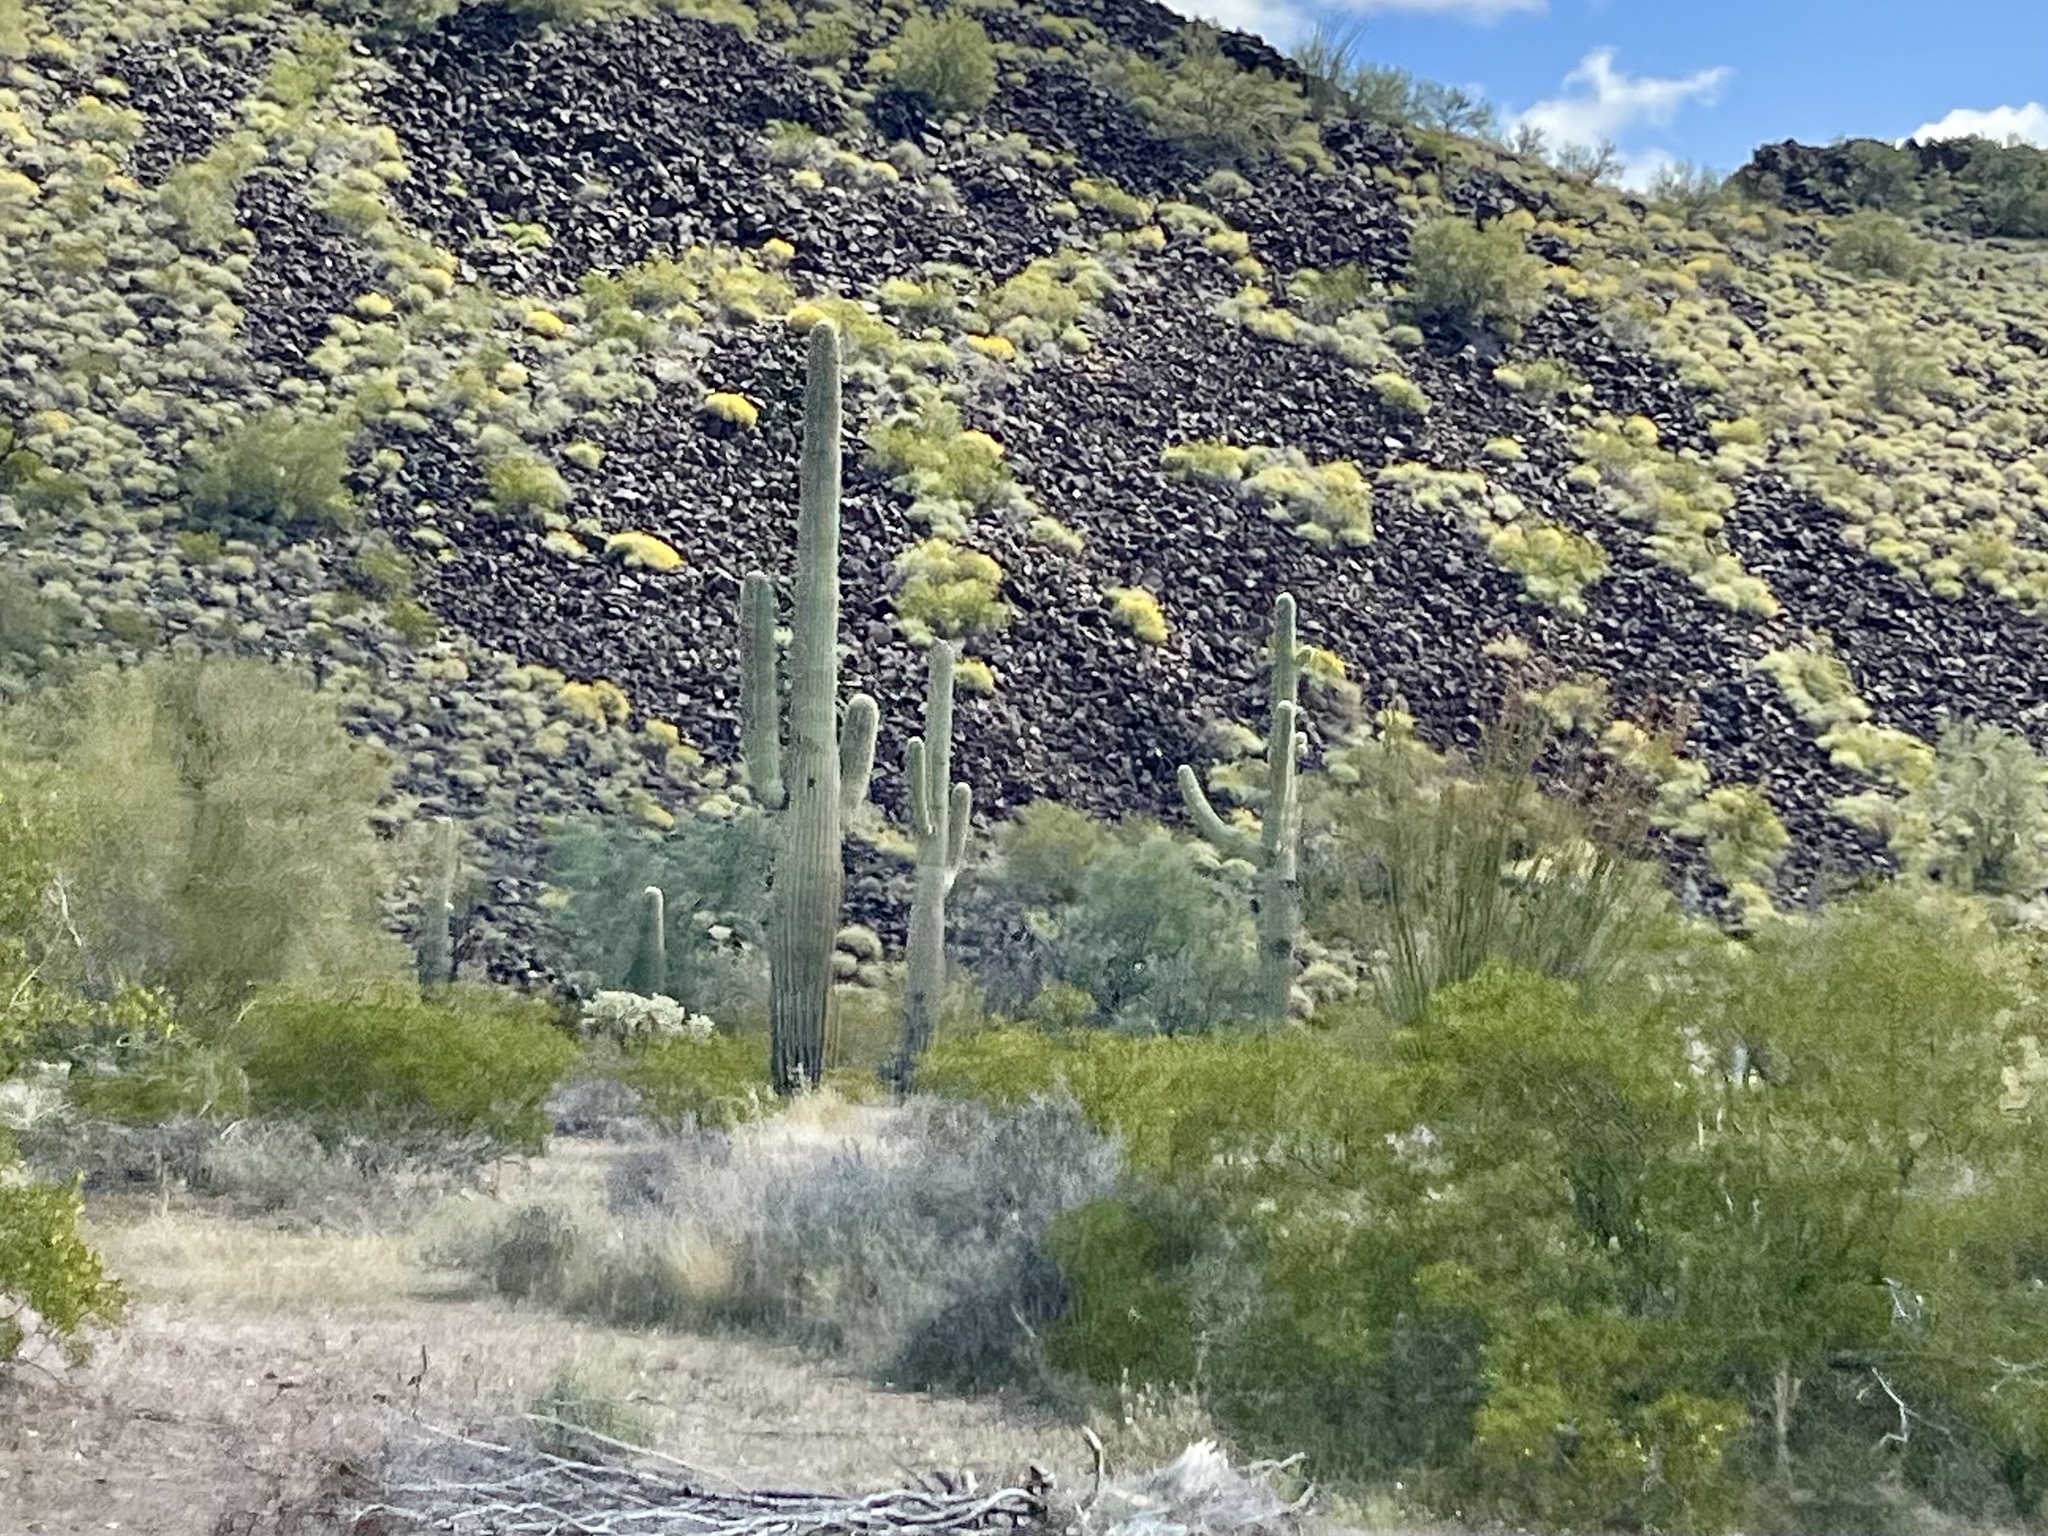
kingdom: Plantae
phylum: Tracheophyta
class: Magnoliopsida
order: Caryophyllales
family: Cactaceae
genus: Carnegiea
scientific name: Carnegiea gigantea
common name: Saguaro
